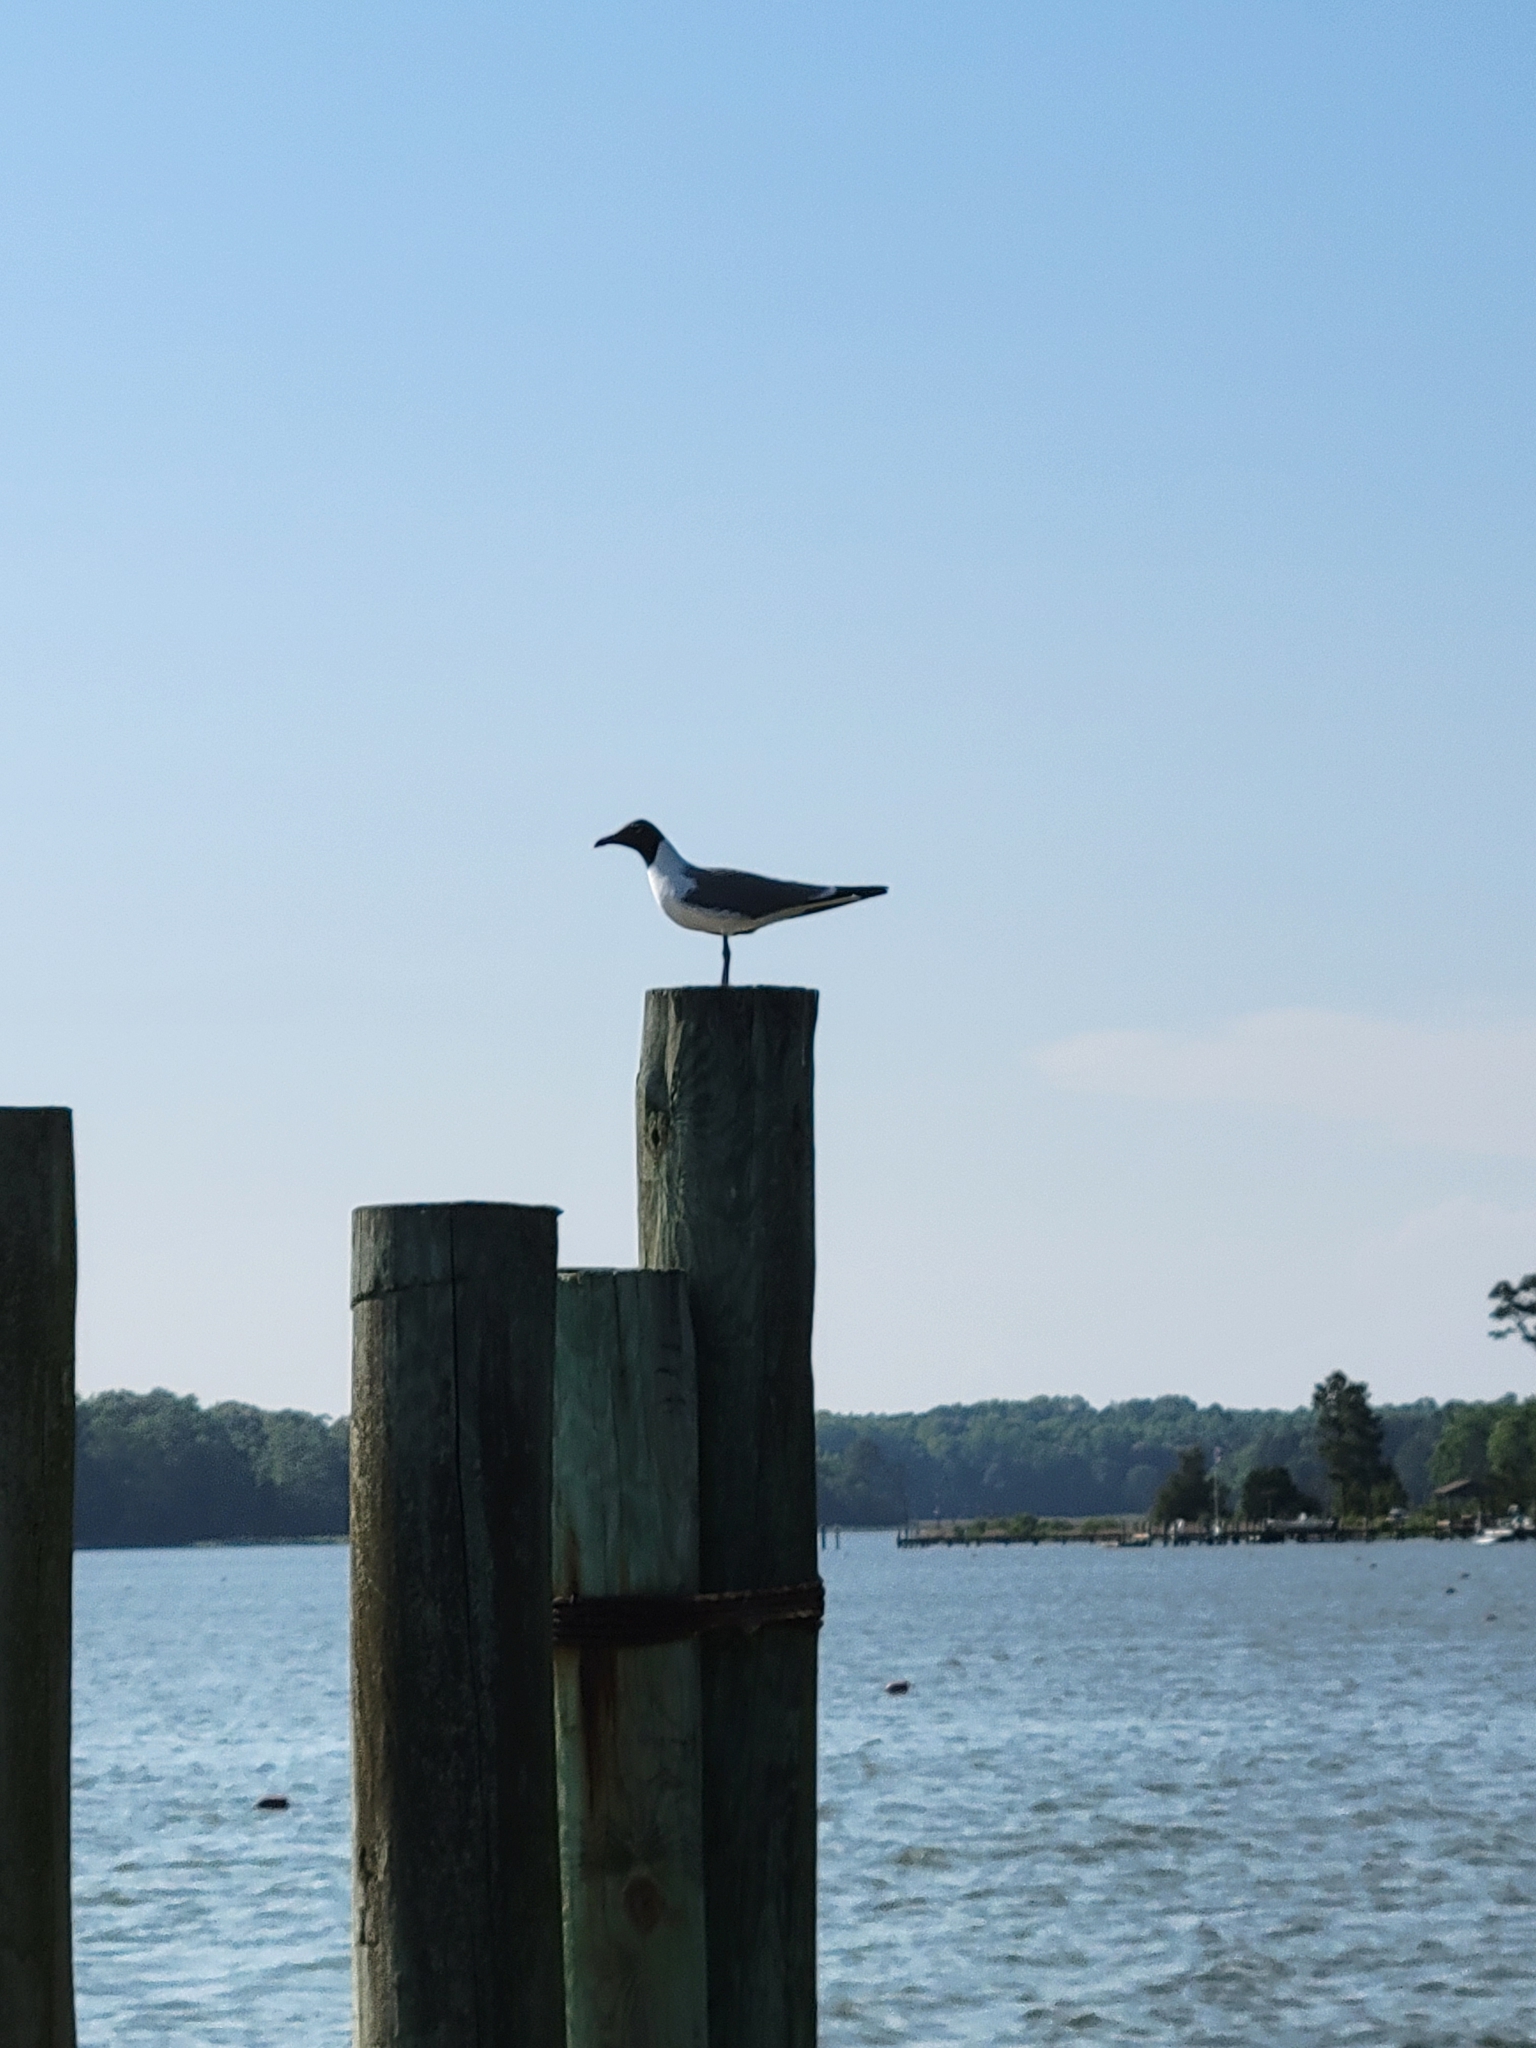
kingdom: Animalia
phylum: Chordata
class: Aves
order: Charadriiformes
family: Laridae
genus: Leucophaeus
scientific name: Leucophaeus atricilla
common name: Laughing gull
